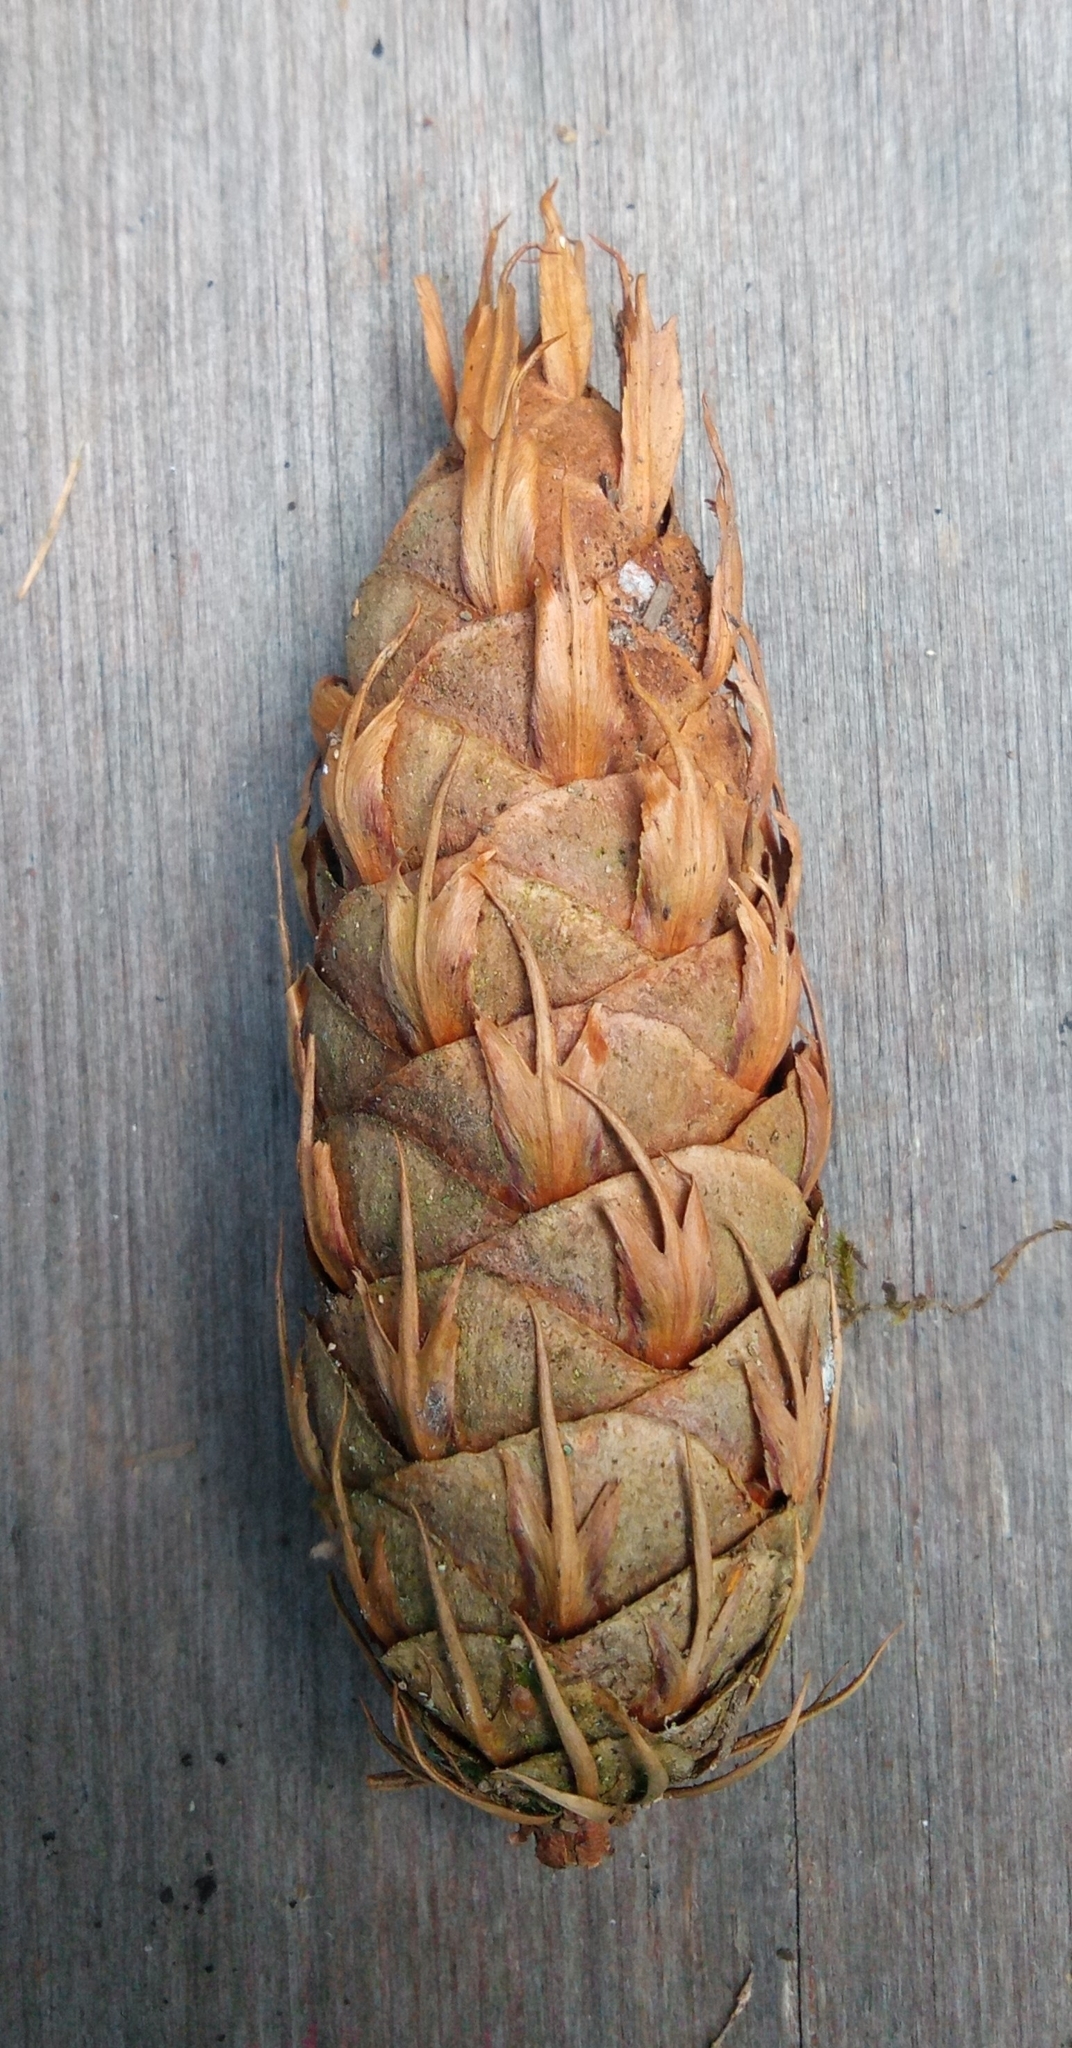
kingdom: Plantae
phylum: Tracheophyta
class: Pinopsida
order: Pinales
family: Pinaceae
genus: Pseudotsuga
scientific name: Pseudotsuga menziesii
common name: Douglas fir
